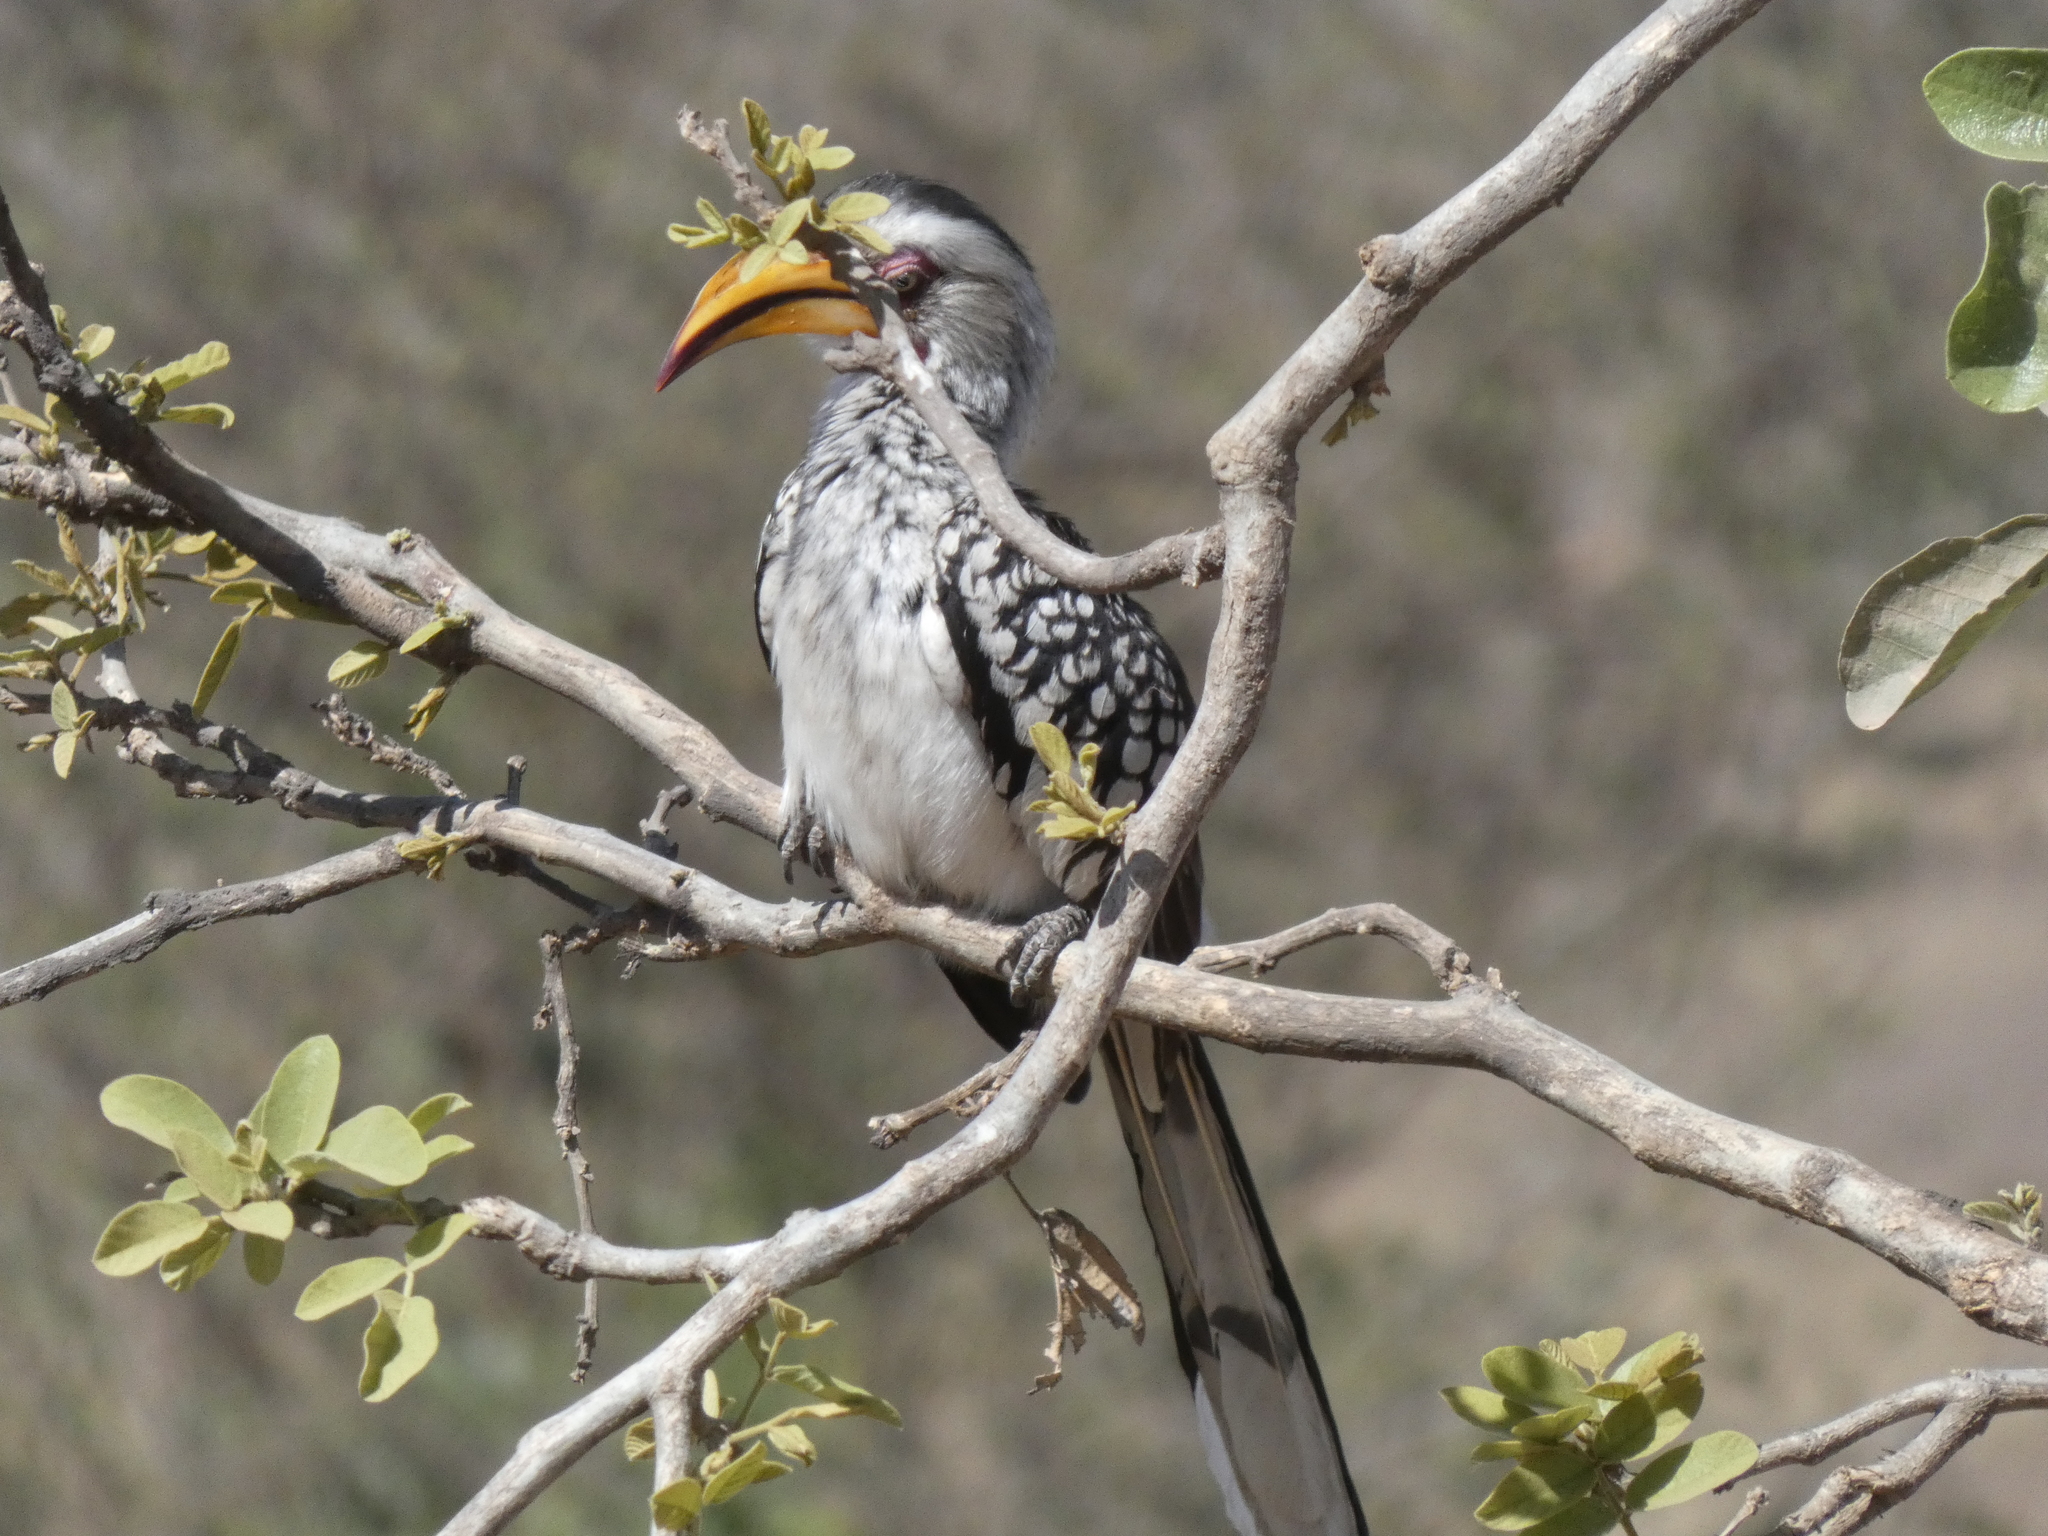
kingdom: Animalia
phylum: Chordata
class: Aves
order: Bucerotiformes
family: Bucerotidae
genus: Tockus
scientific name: Tockus leucomelas
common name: Southern yellow-billed hornbill
